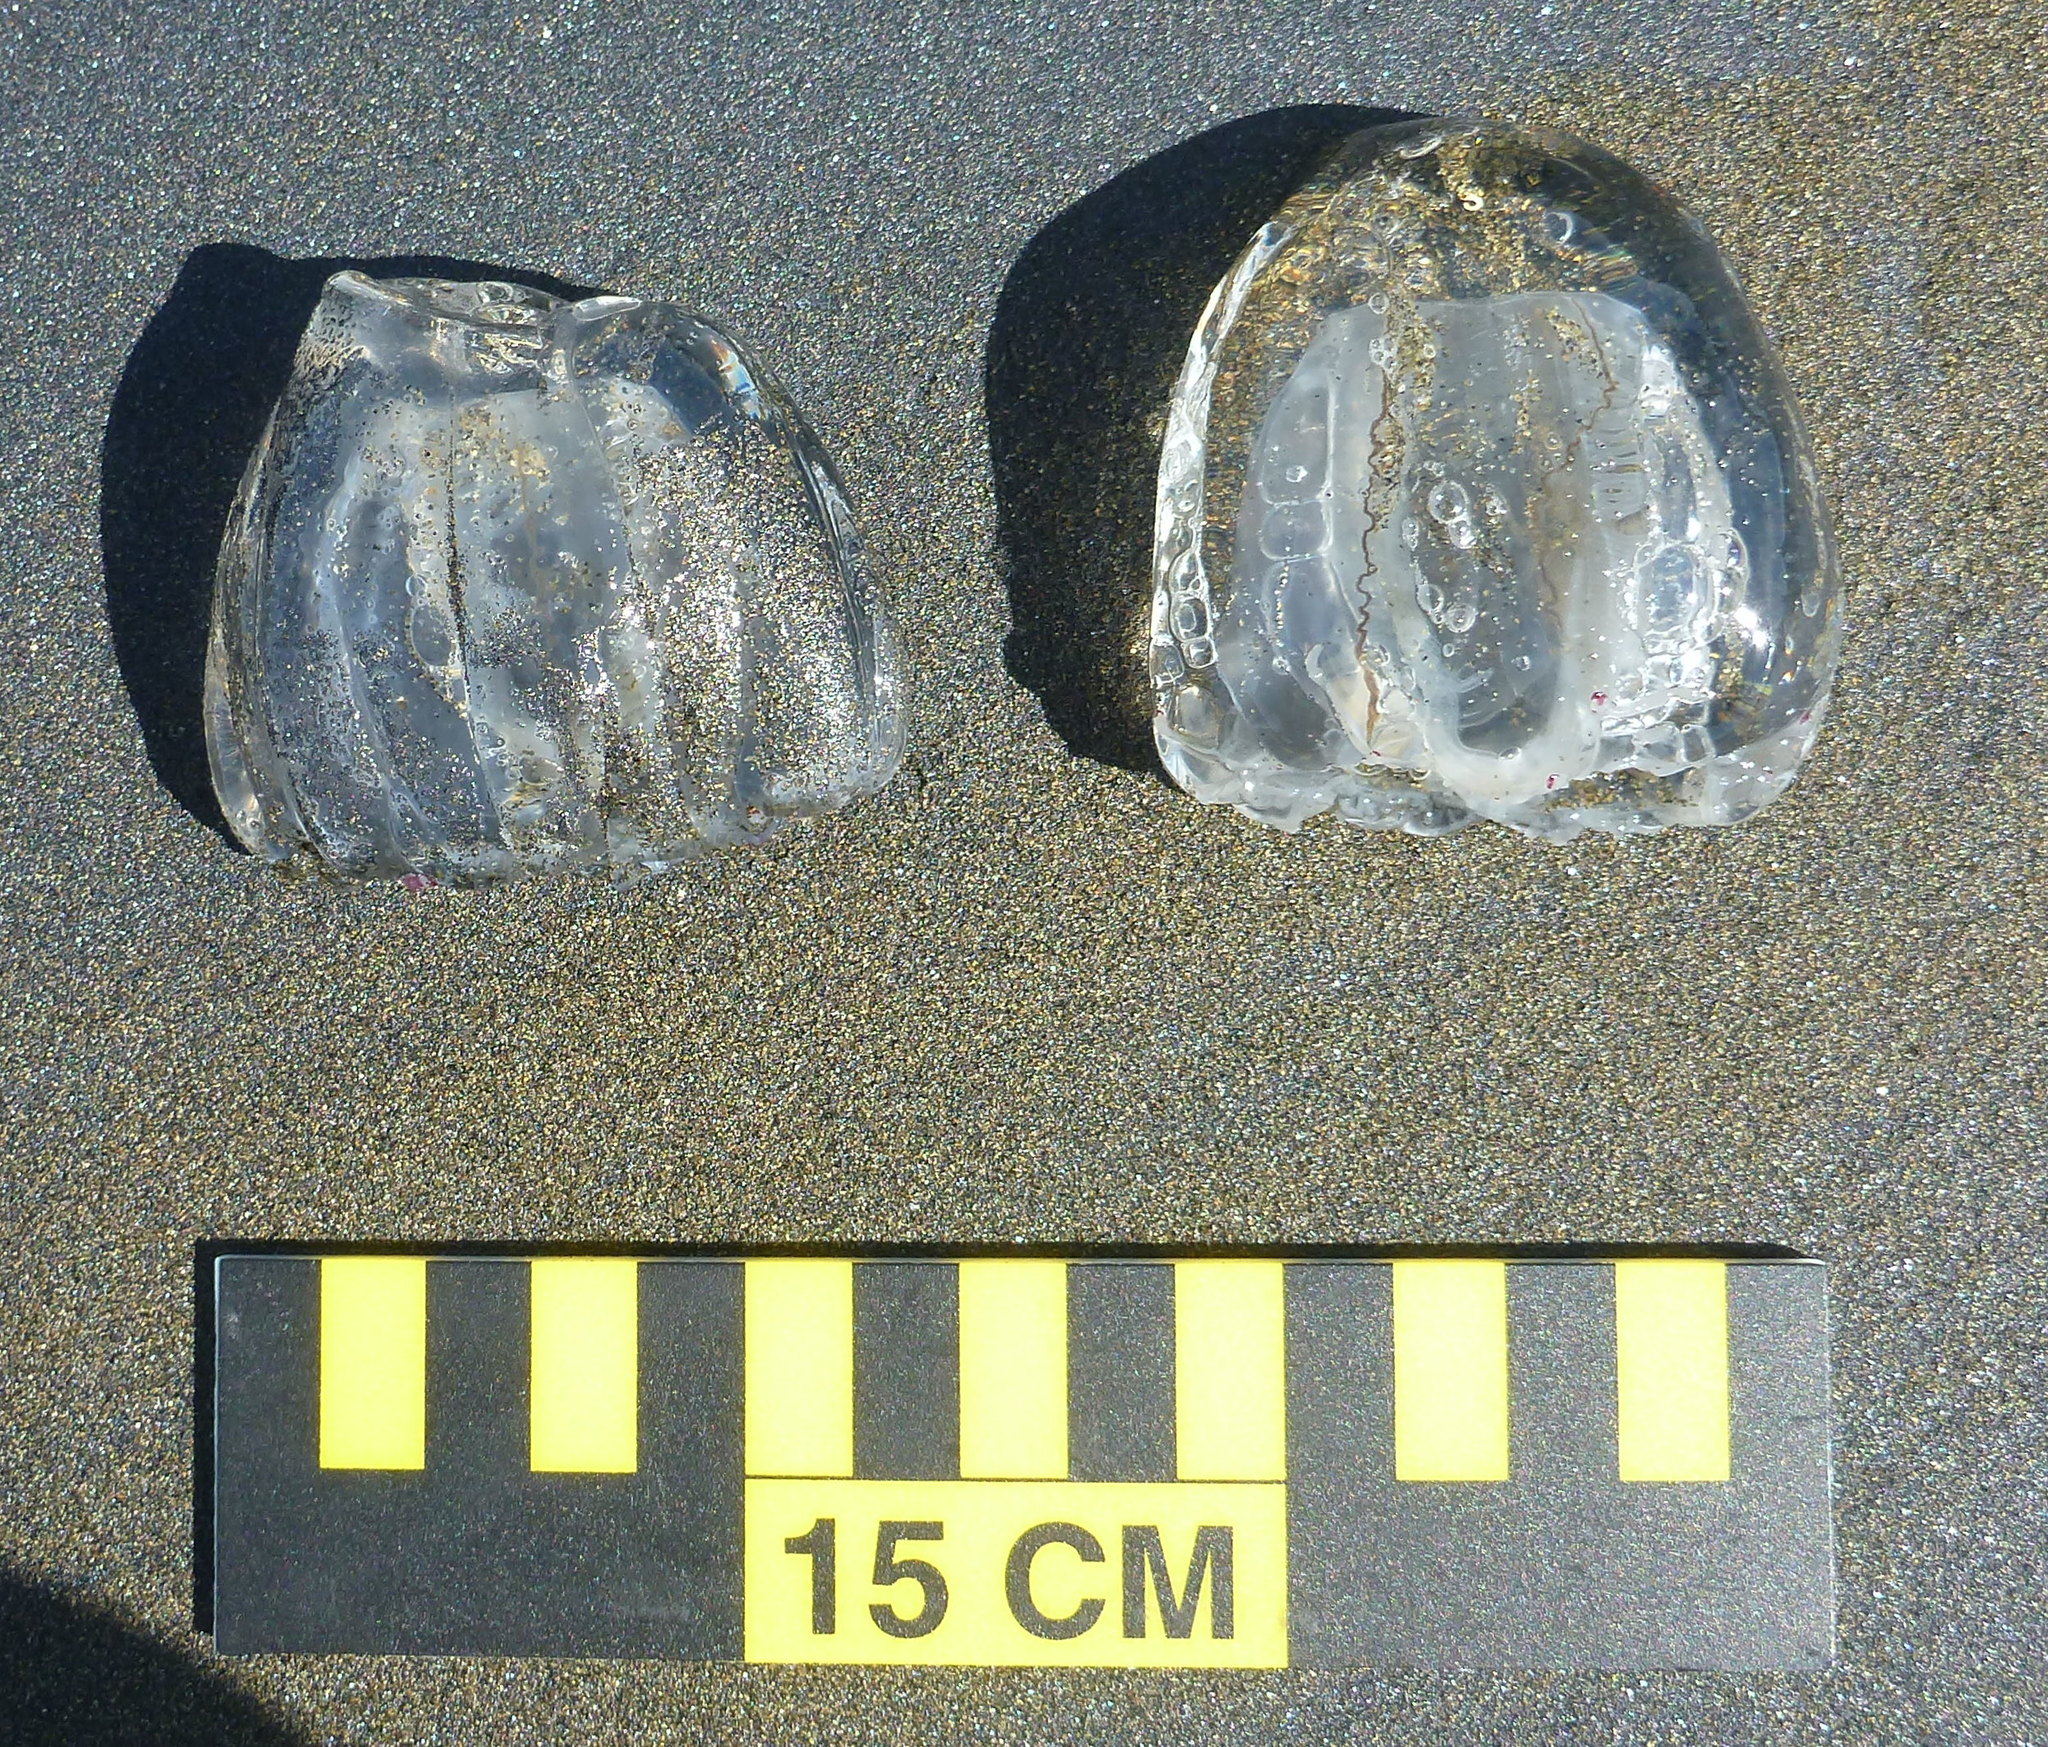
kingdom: Animalia
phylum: Cnidaria
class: Hydrozoa
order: Anthoathecata
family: Corynidae
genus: Scrippsia
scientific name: Scrippsia pacifica
